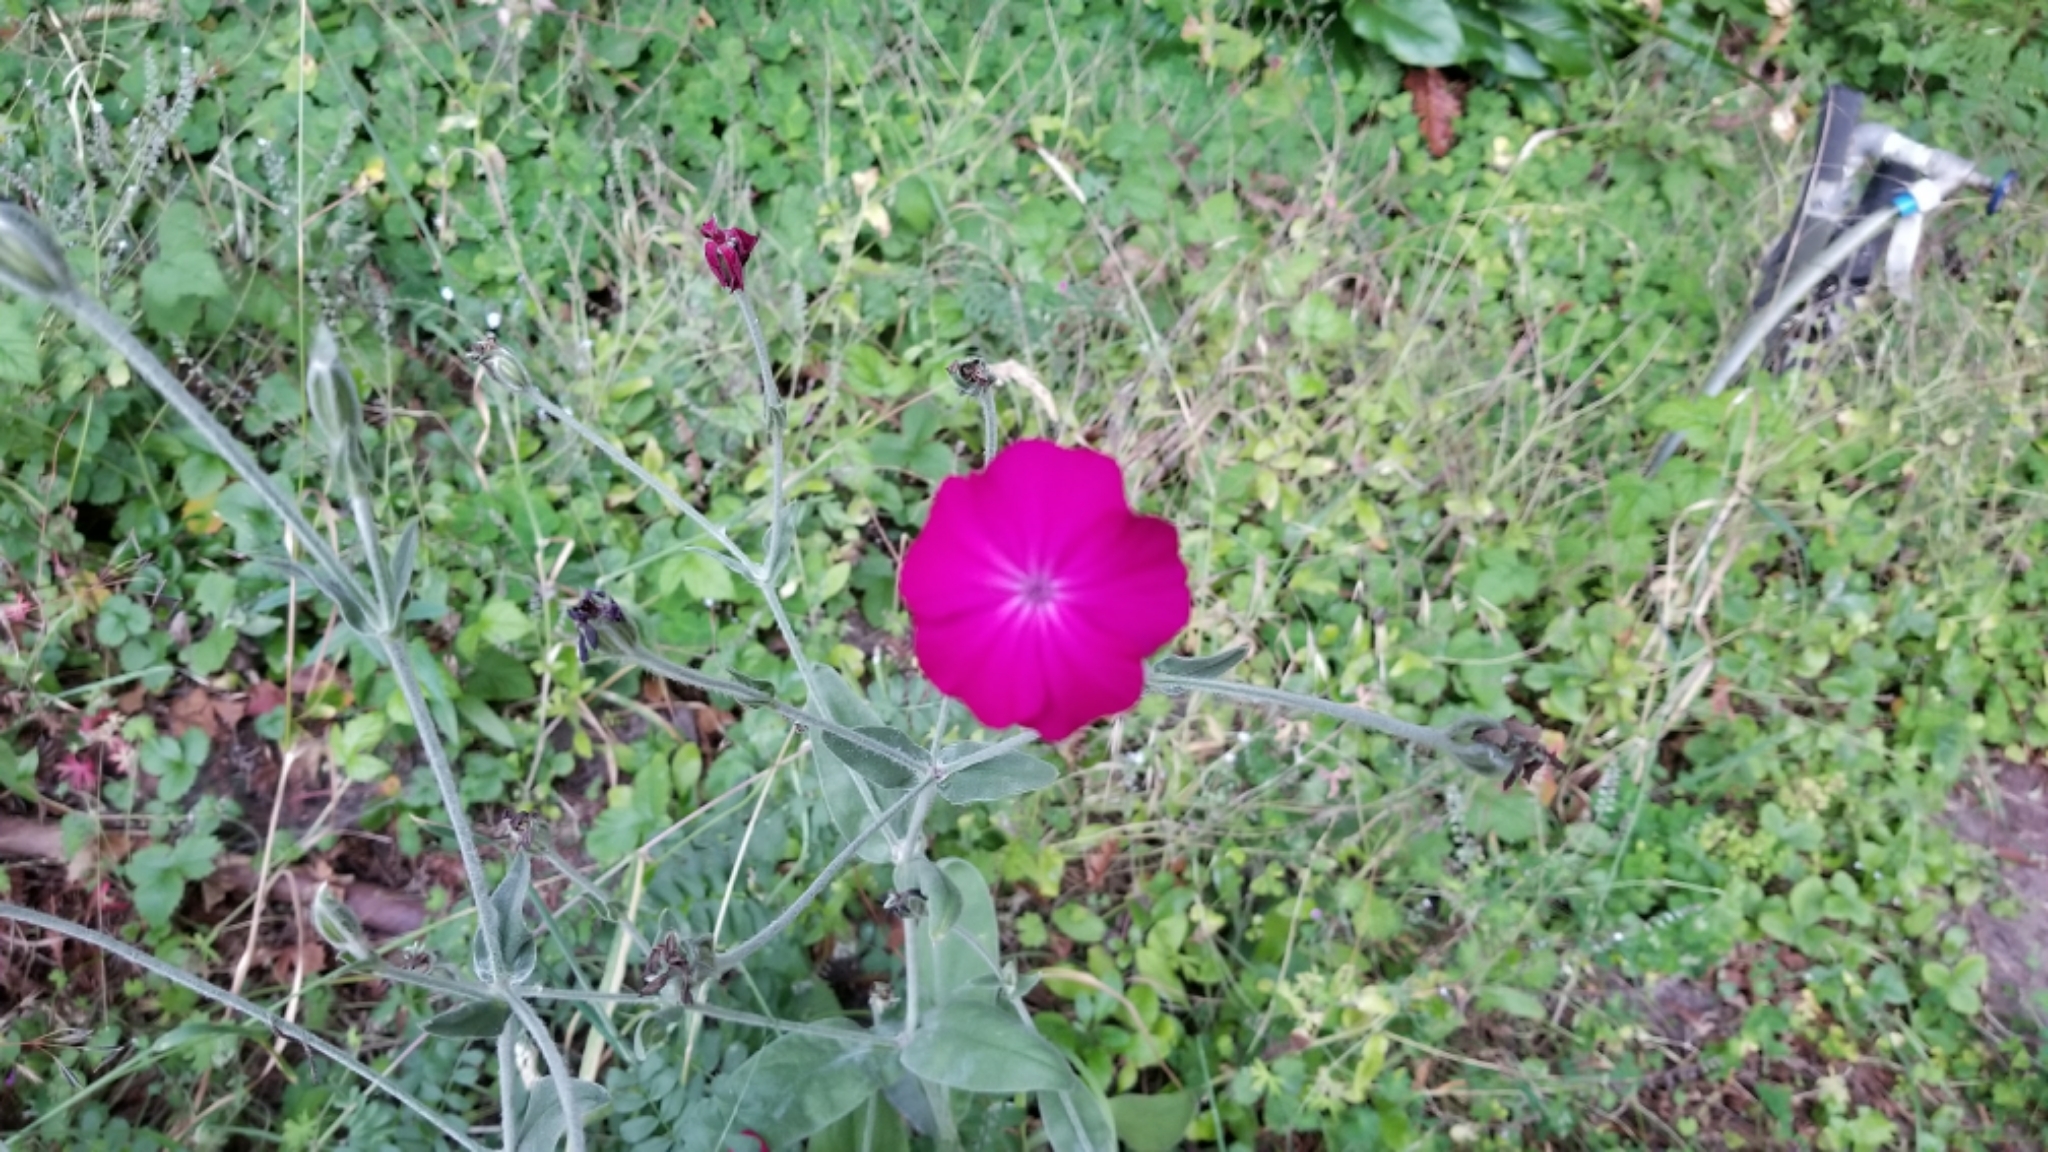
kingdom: Plantae
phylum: Tracheophyta
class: Magnoliopsida
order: Caryophyllales
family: Caryophyllaceae
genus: Silene
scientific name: Silene coronaria
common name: Rose campion
